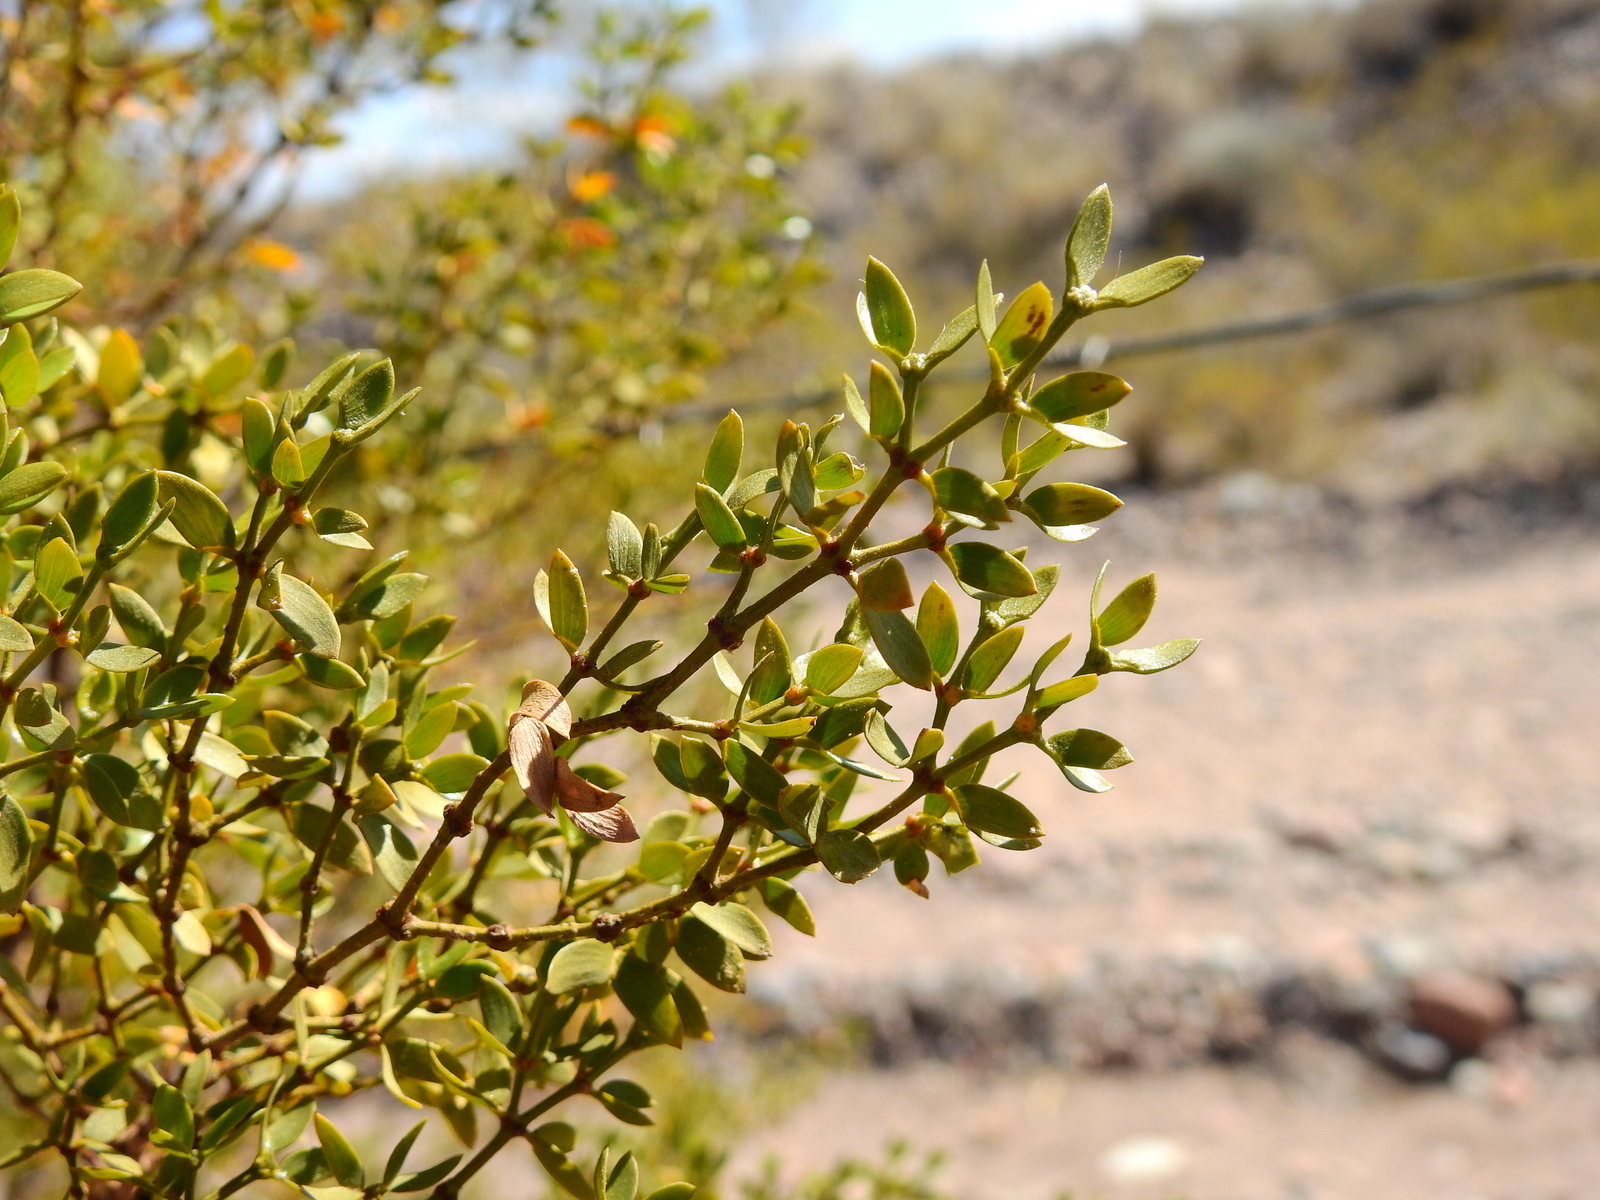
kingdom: Plantae
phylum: Tracheophyta
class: Magnoliopsida
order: Zygophyllales
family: Zygophyllaceae
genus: Larrea
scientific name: Larrea divaricata
